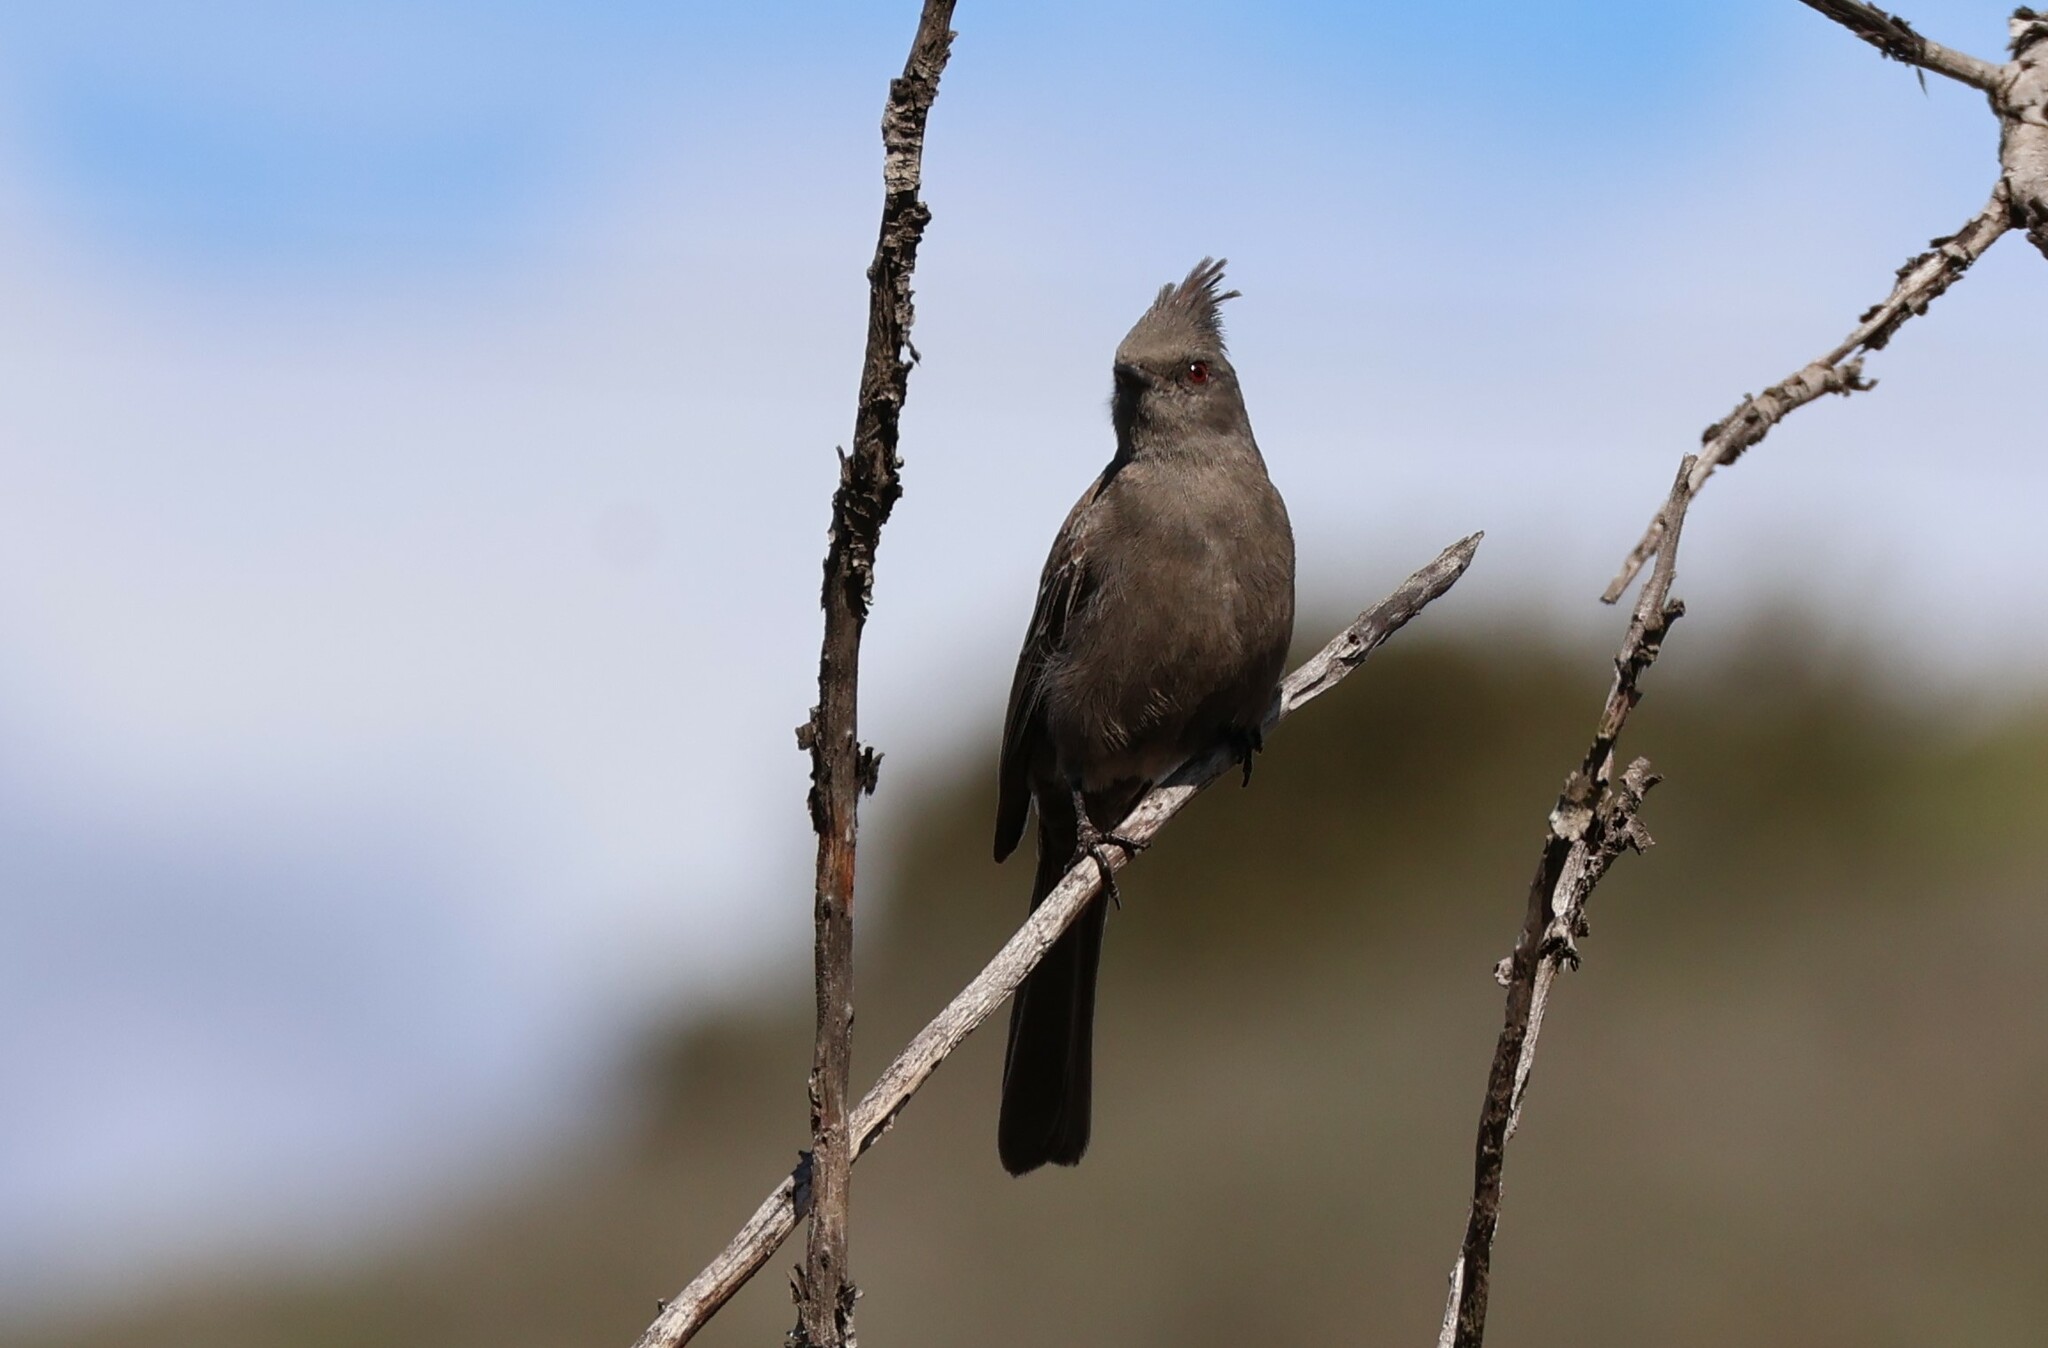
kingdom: Animalia
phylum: Chordata
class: Aves
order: Passeriformes
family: Ptilogonatidae
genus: Phainopepla
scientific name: Phainopepla nitens
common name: Phainopepla
